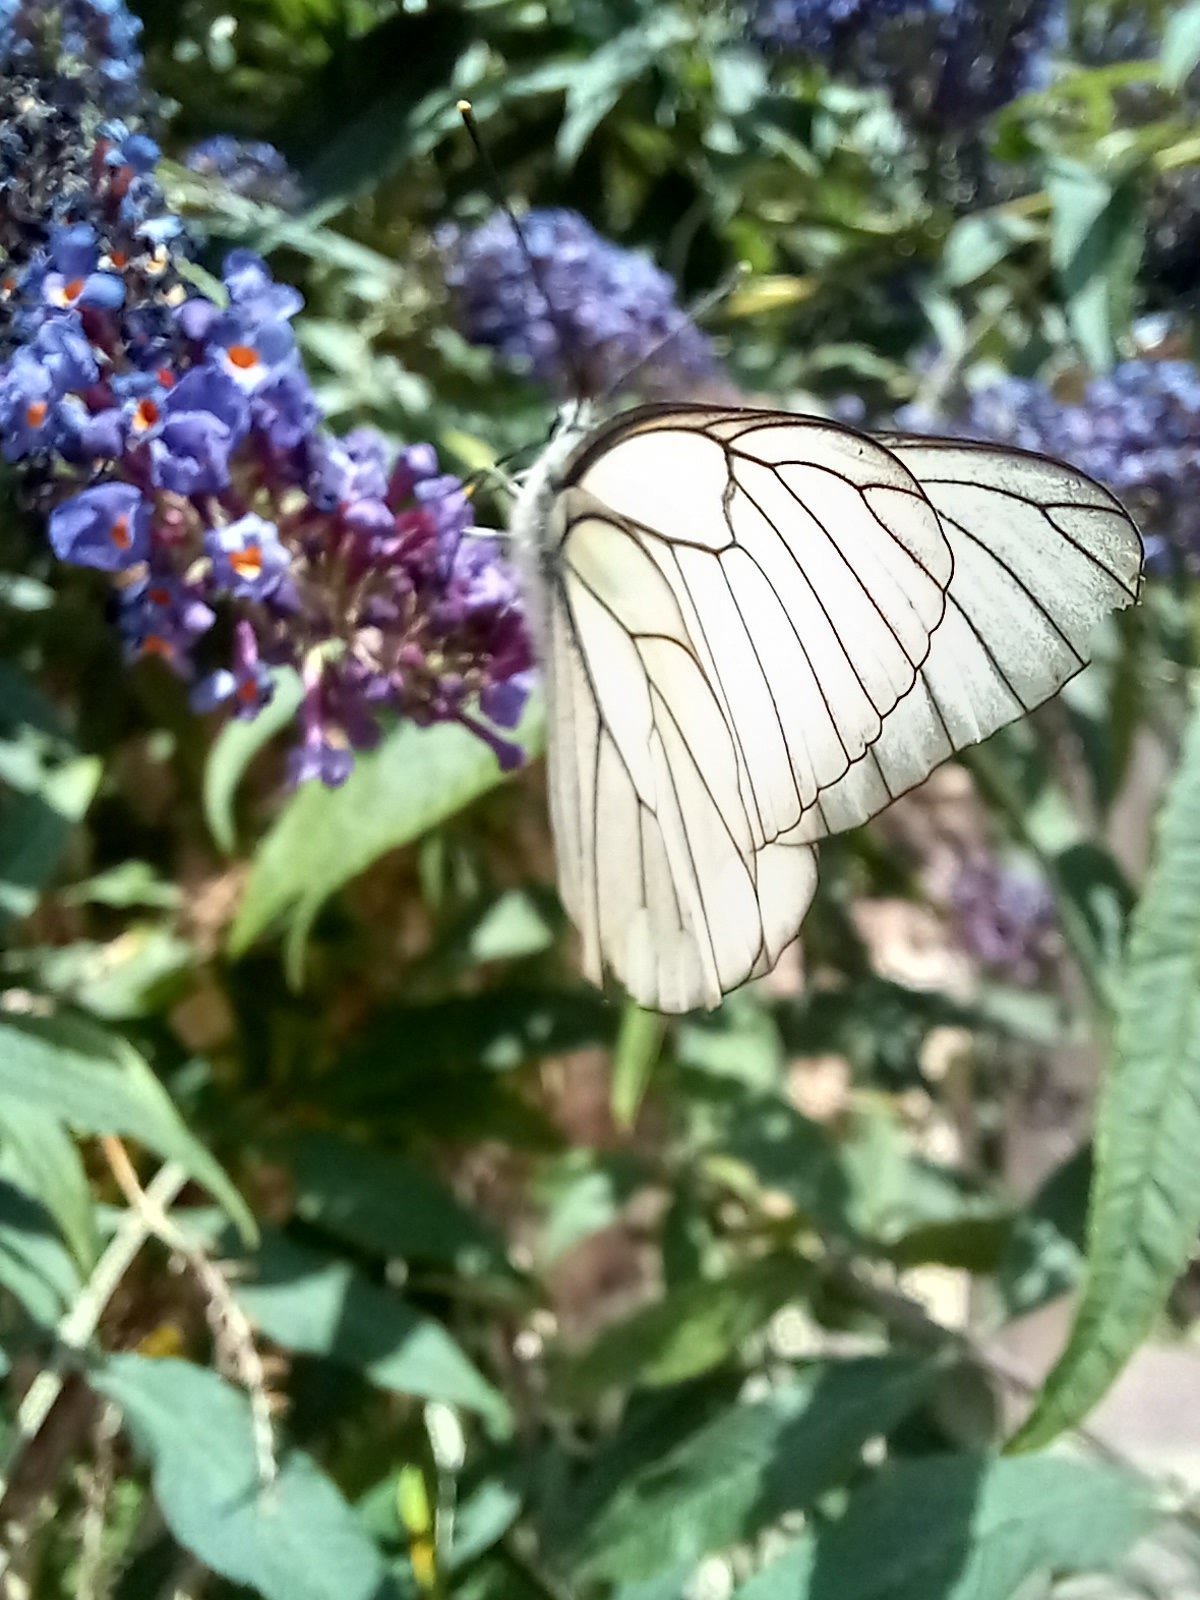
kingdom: Animalia
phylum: Arthropoda
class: Insecta
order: Lepidoptera
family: Pieridae
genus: Aporia
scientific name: Aporia crataegi
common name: Black-veined white
